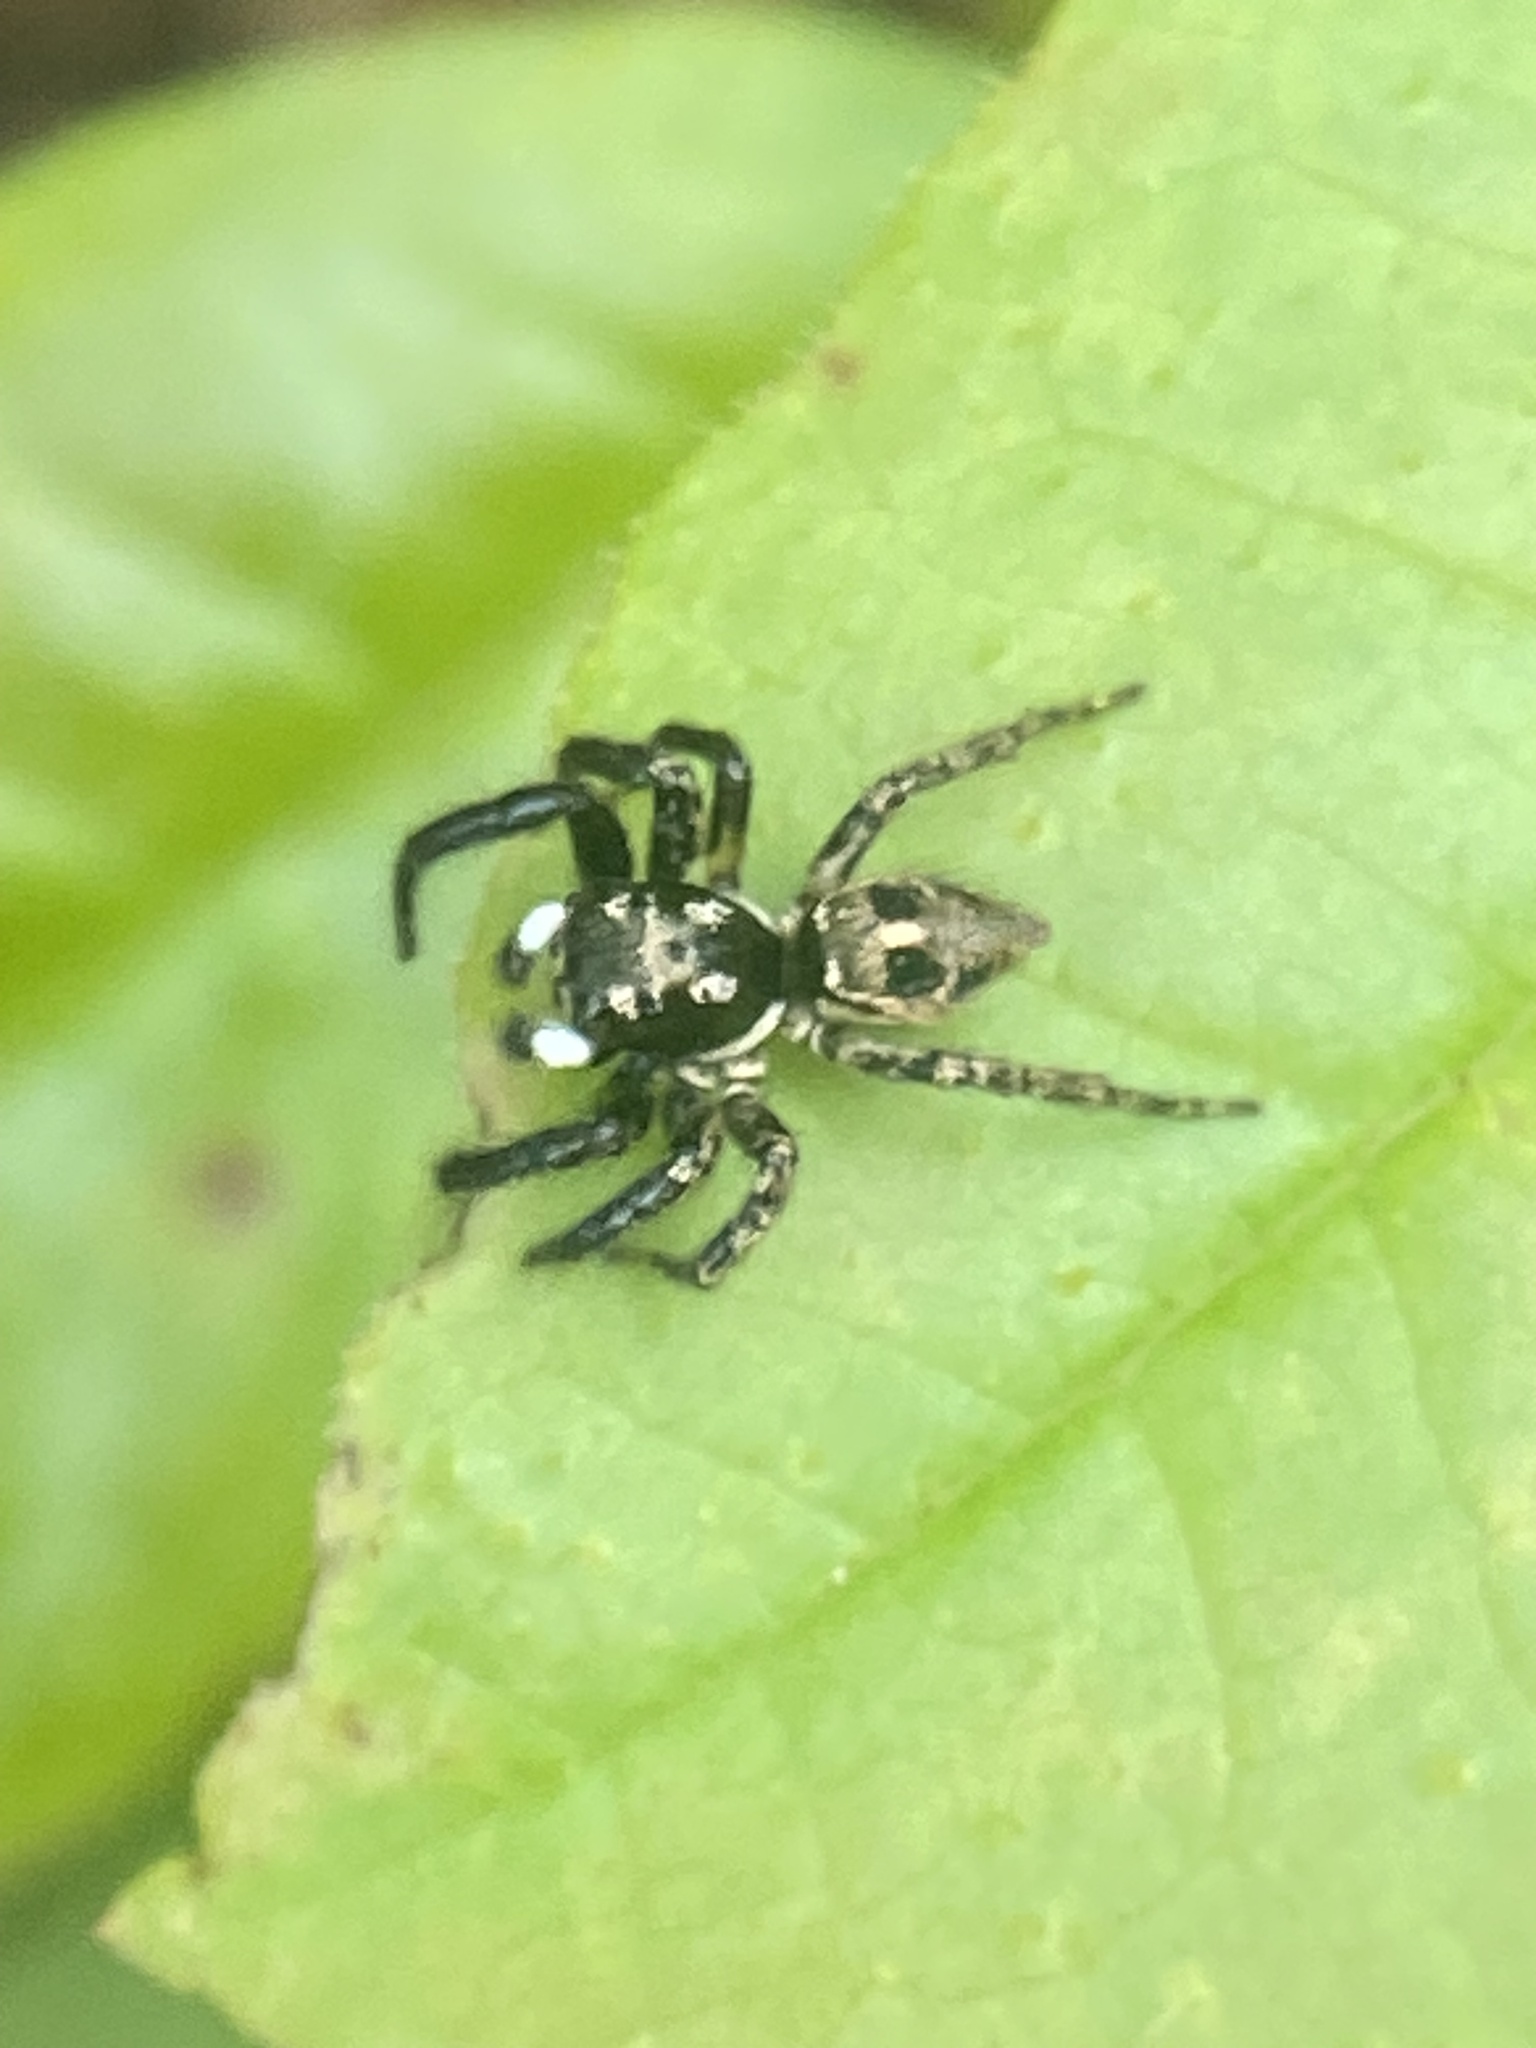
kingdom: Animalia
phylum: Arthropoda
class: Arachnida
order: Araneae
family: Salticidae
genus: Anasaitis
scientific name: Anasaitis canosa
